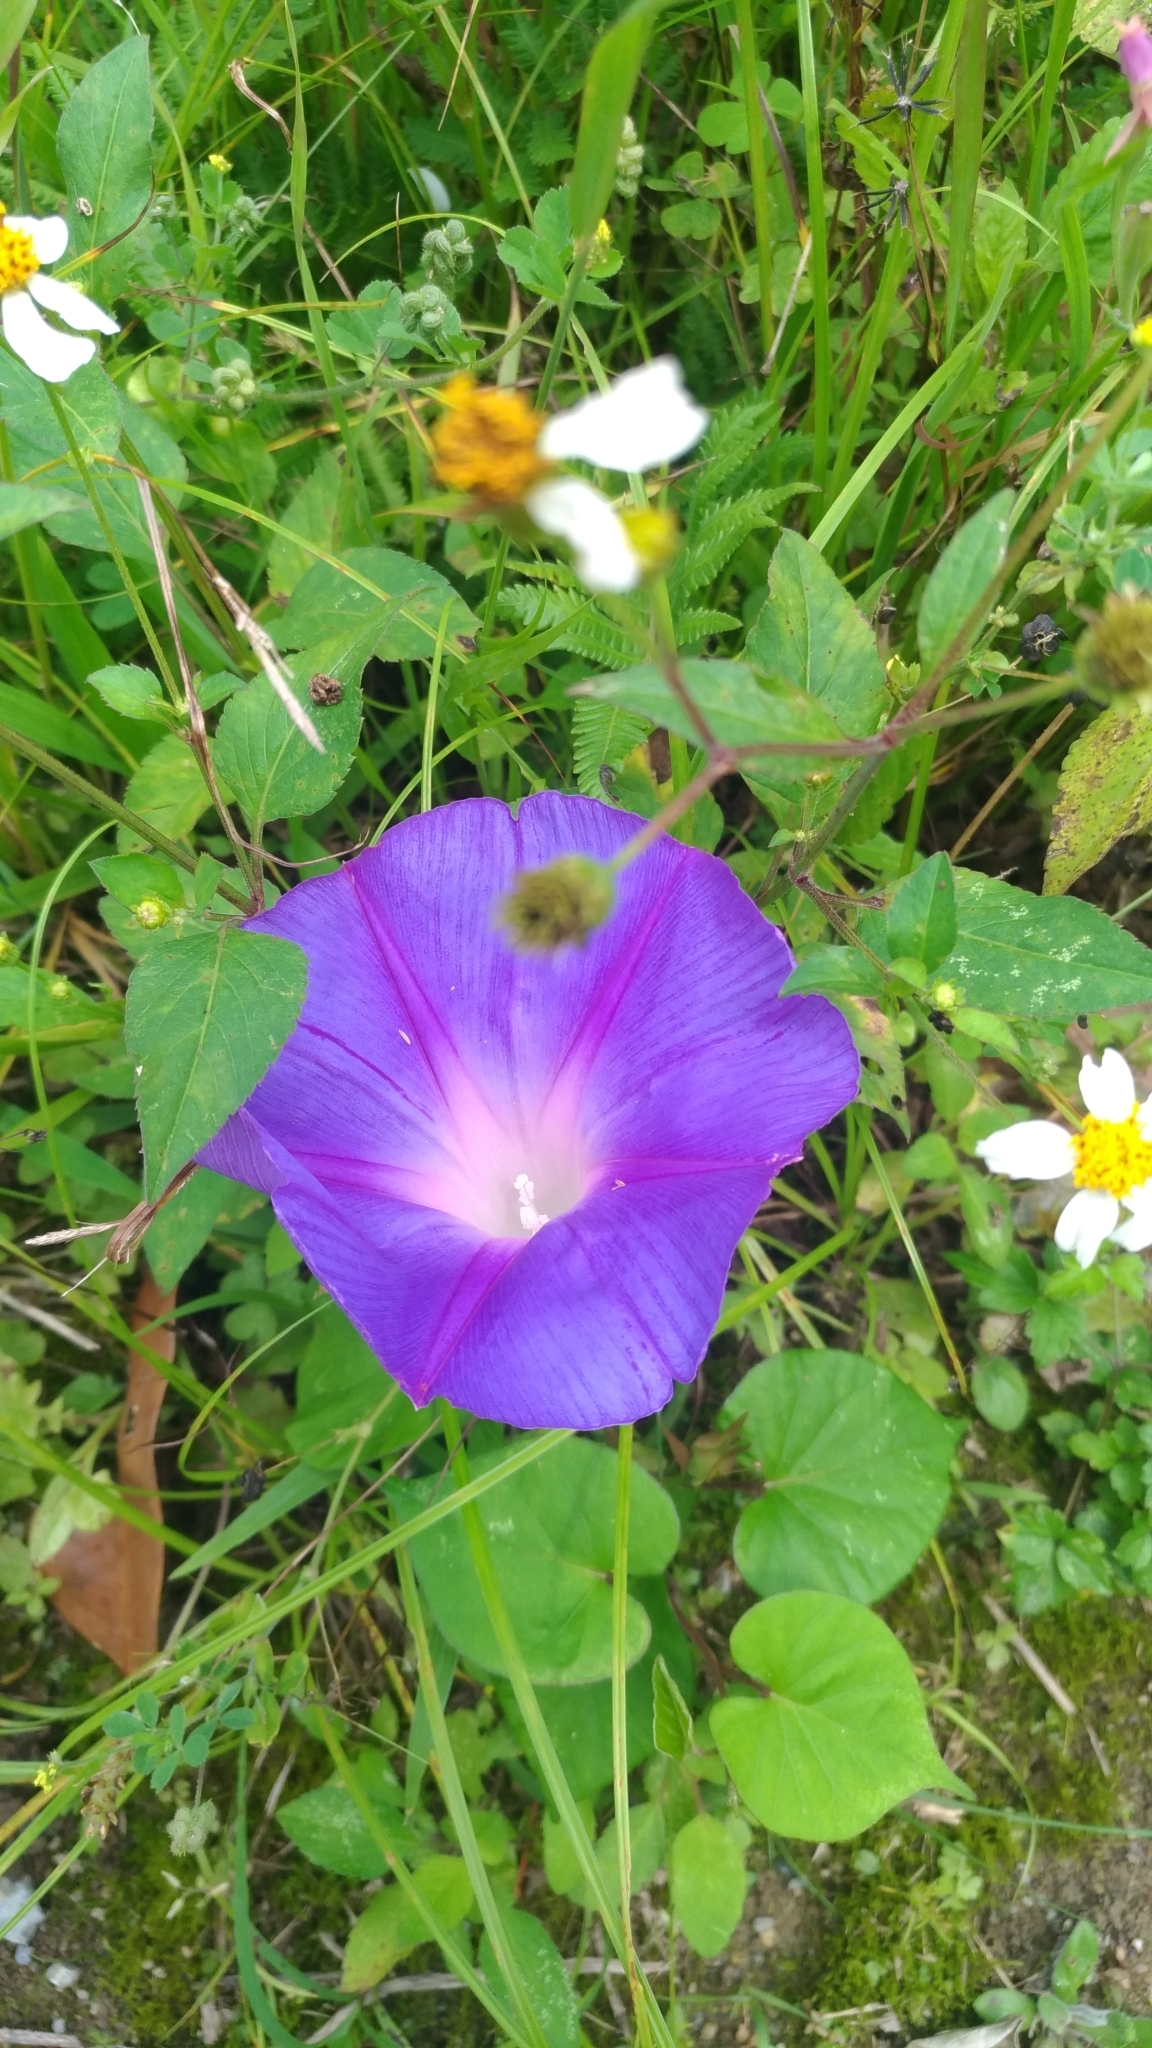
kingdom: Plantae
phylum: Tracheophyta
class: Magnoliopsida
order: Solanales
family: Convolvulaceae
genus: Ipomoea
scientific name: Ipomoea indica
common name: Blue dawnflower
